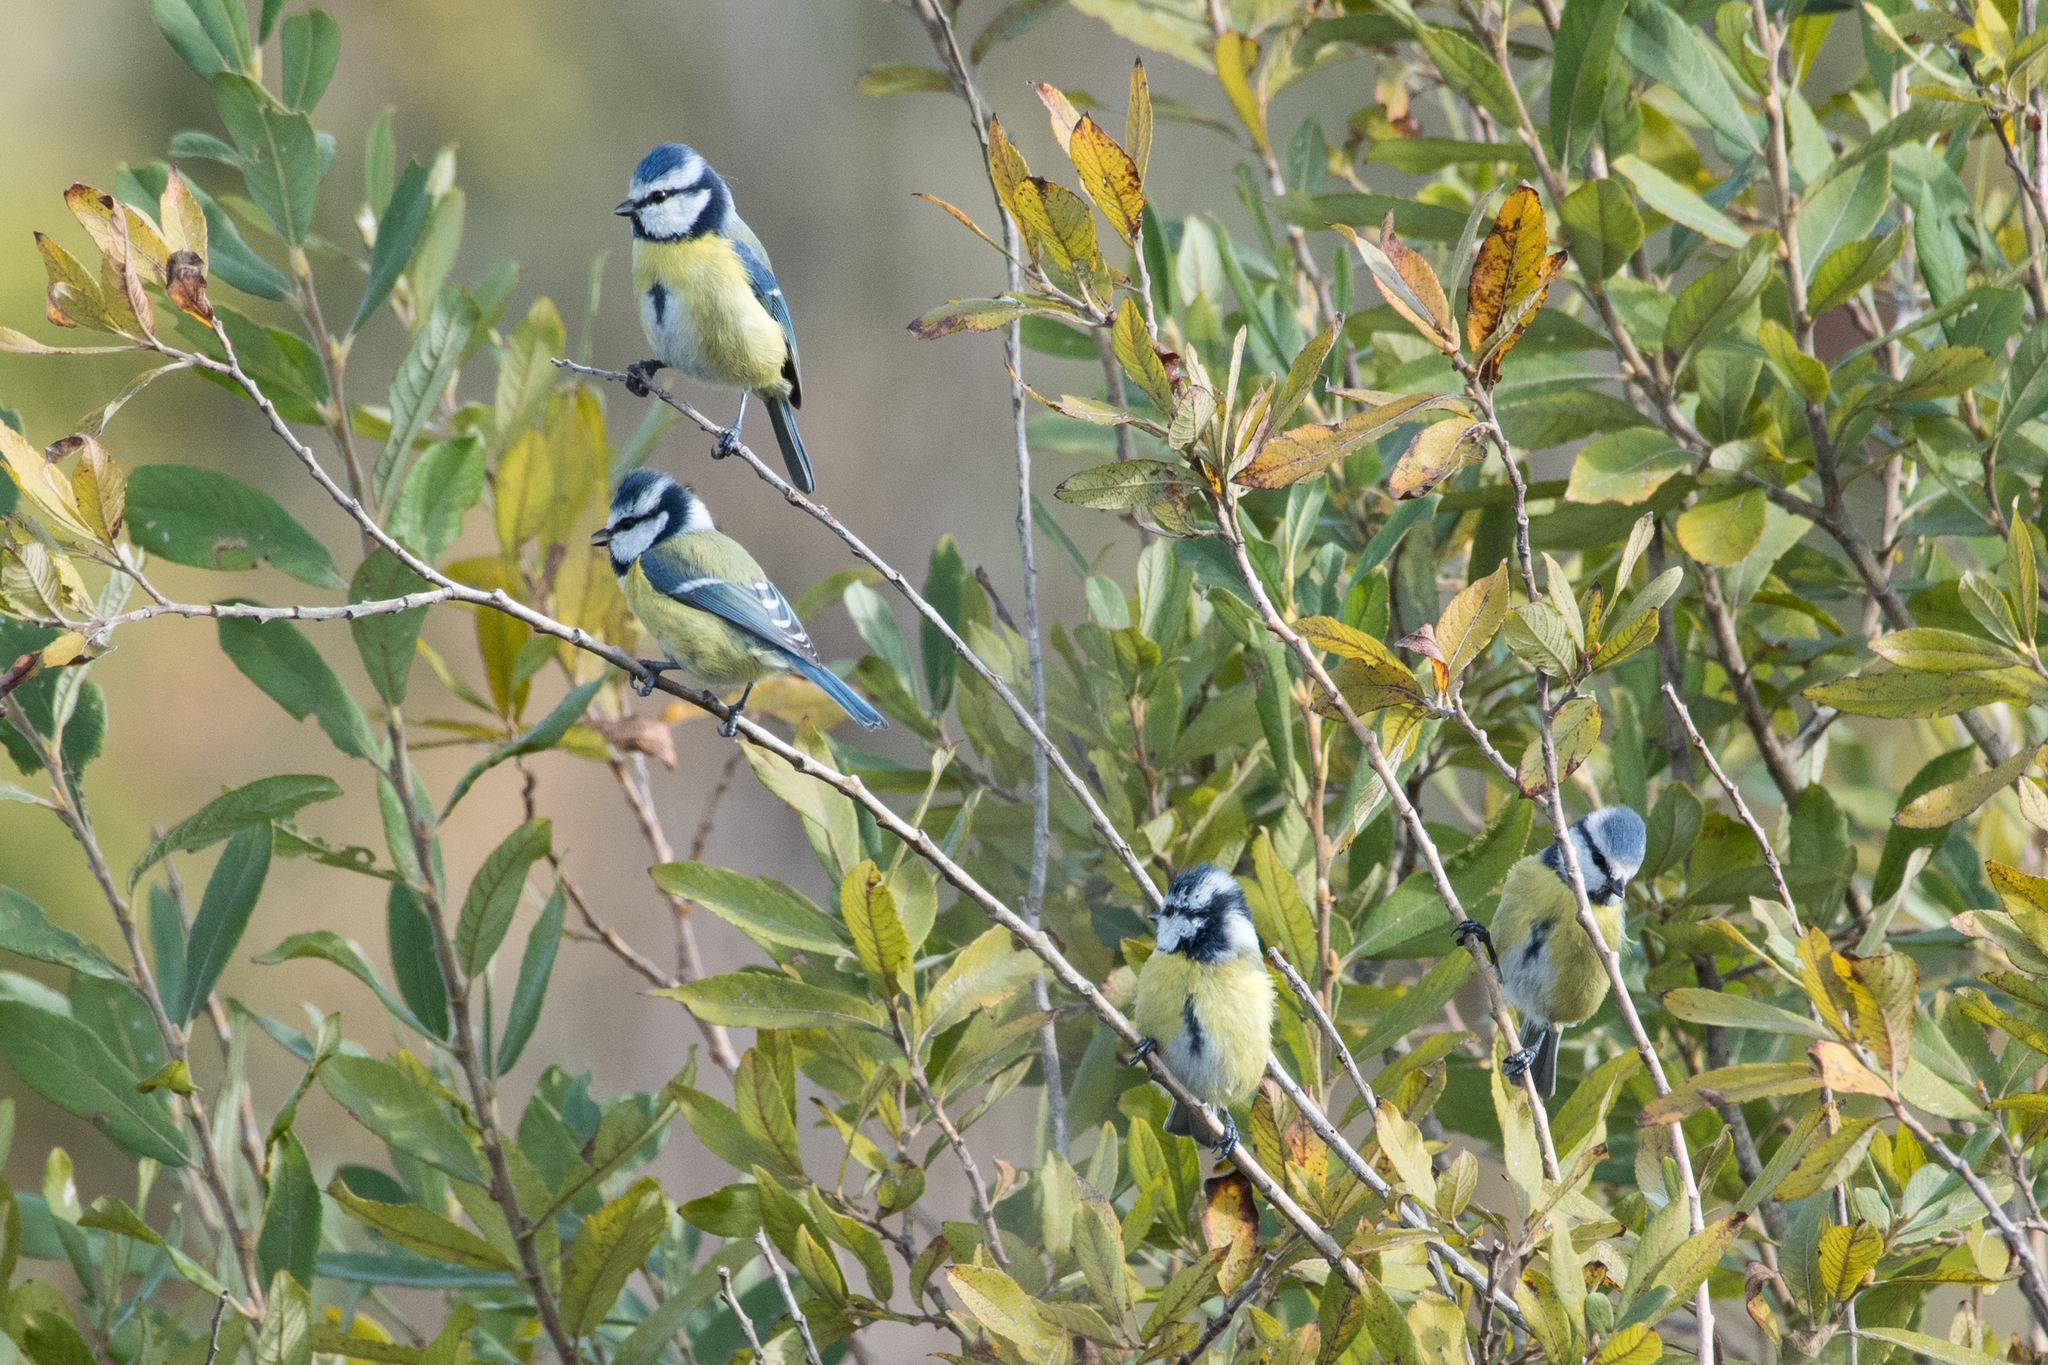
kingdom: Animalia
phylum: Chordata
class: Aves
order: Passeriformes
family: Paridae
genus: Cyanistes
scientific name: Cyanistes caeruleus
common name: Eurasian blue tit
